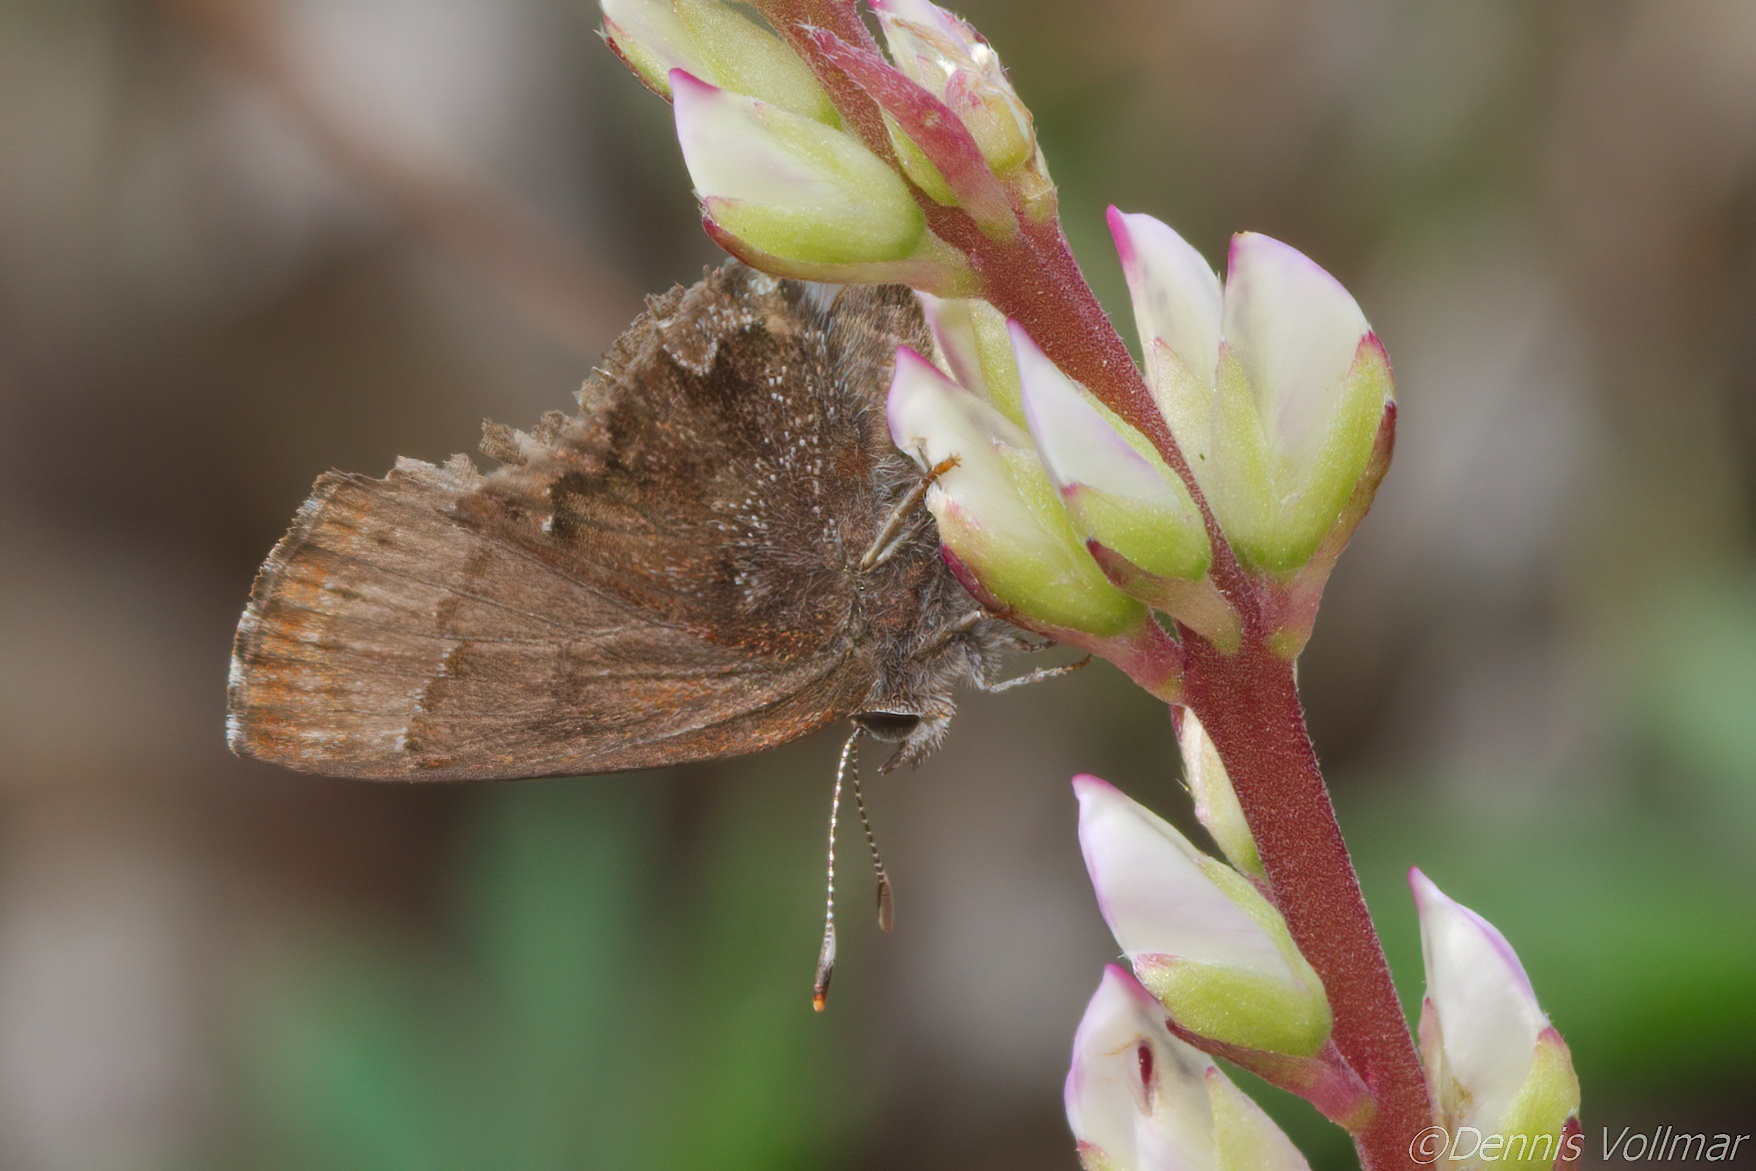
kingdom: Animalia
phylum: Arthropoda
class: Insecta
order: Lepidoptera
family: Lycaenidae
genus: Thecla
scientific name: Thecla irus
